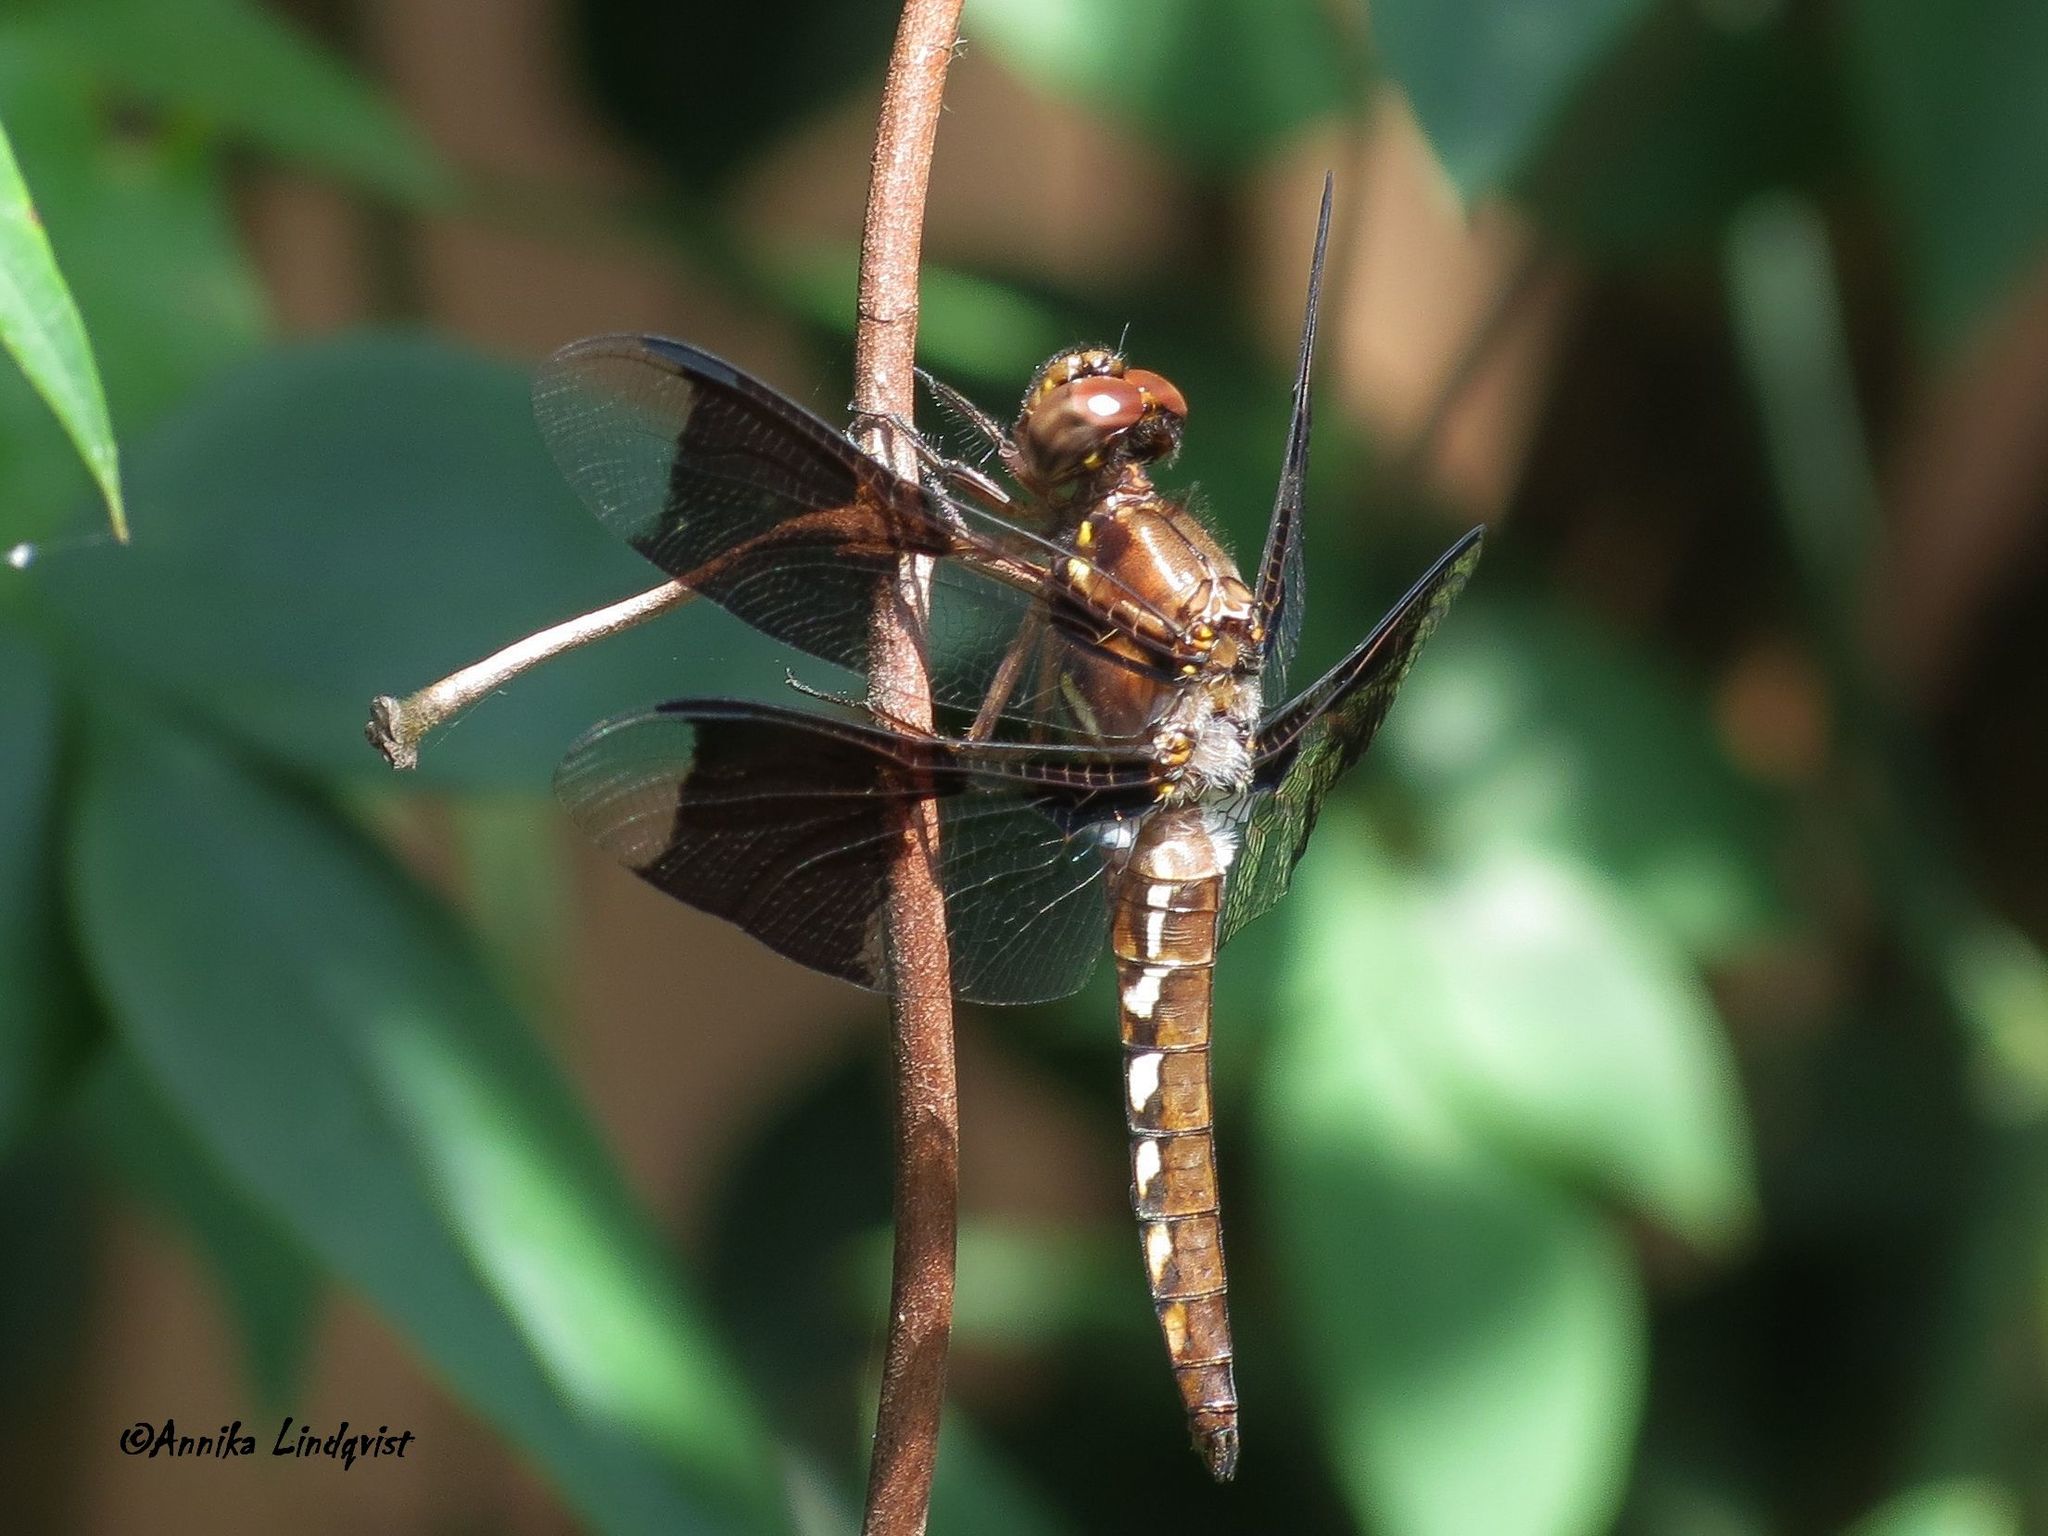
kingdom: Animalia
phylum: Arthropoda
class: Insecta
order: Odonata
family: Libellulidae
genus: Plathemis
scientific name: Plathemis lydia
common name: Common whitetail
